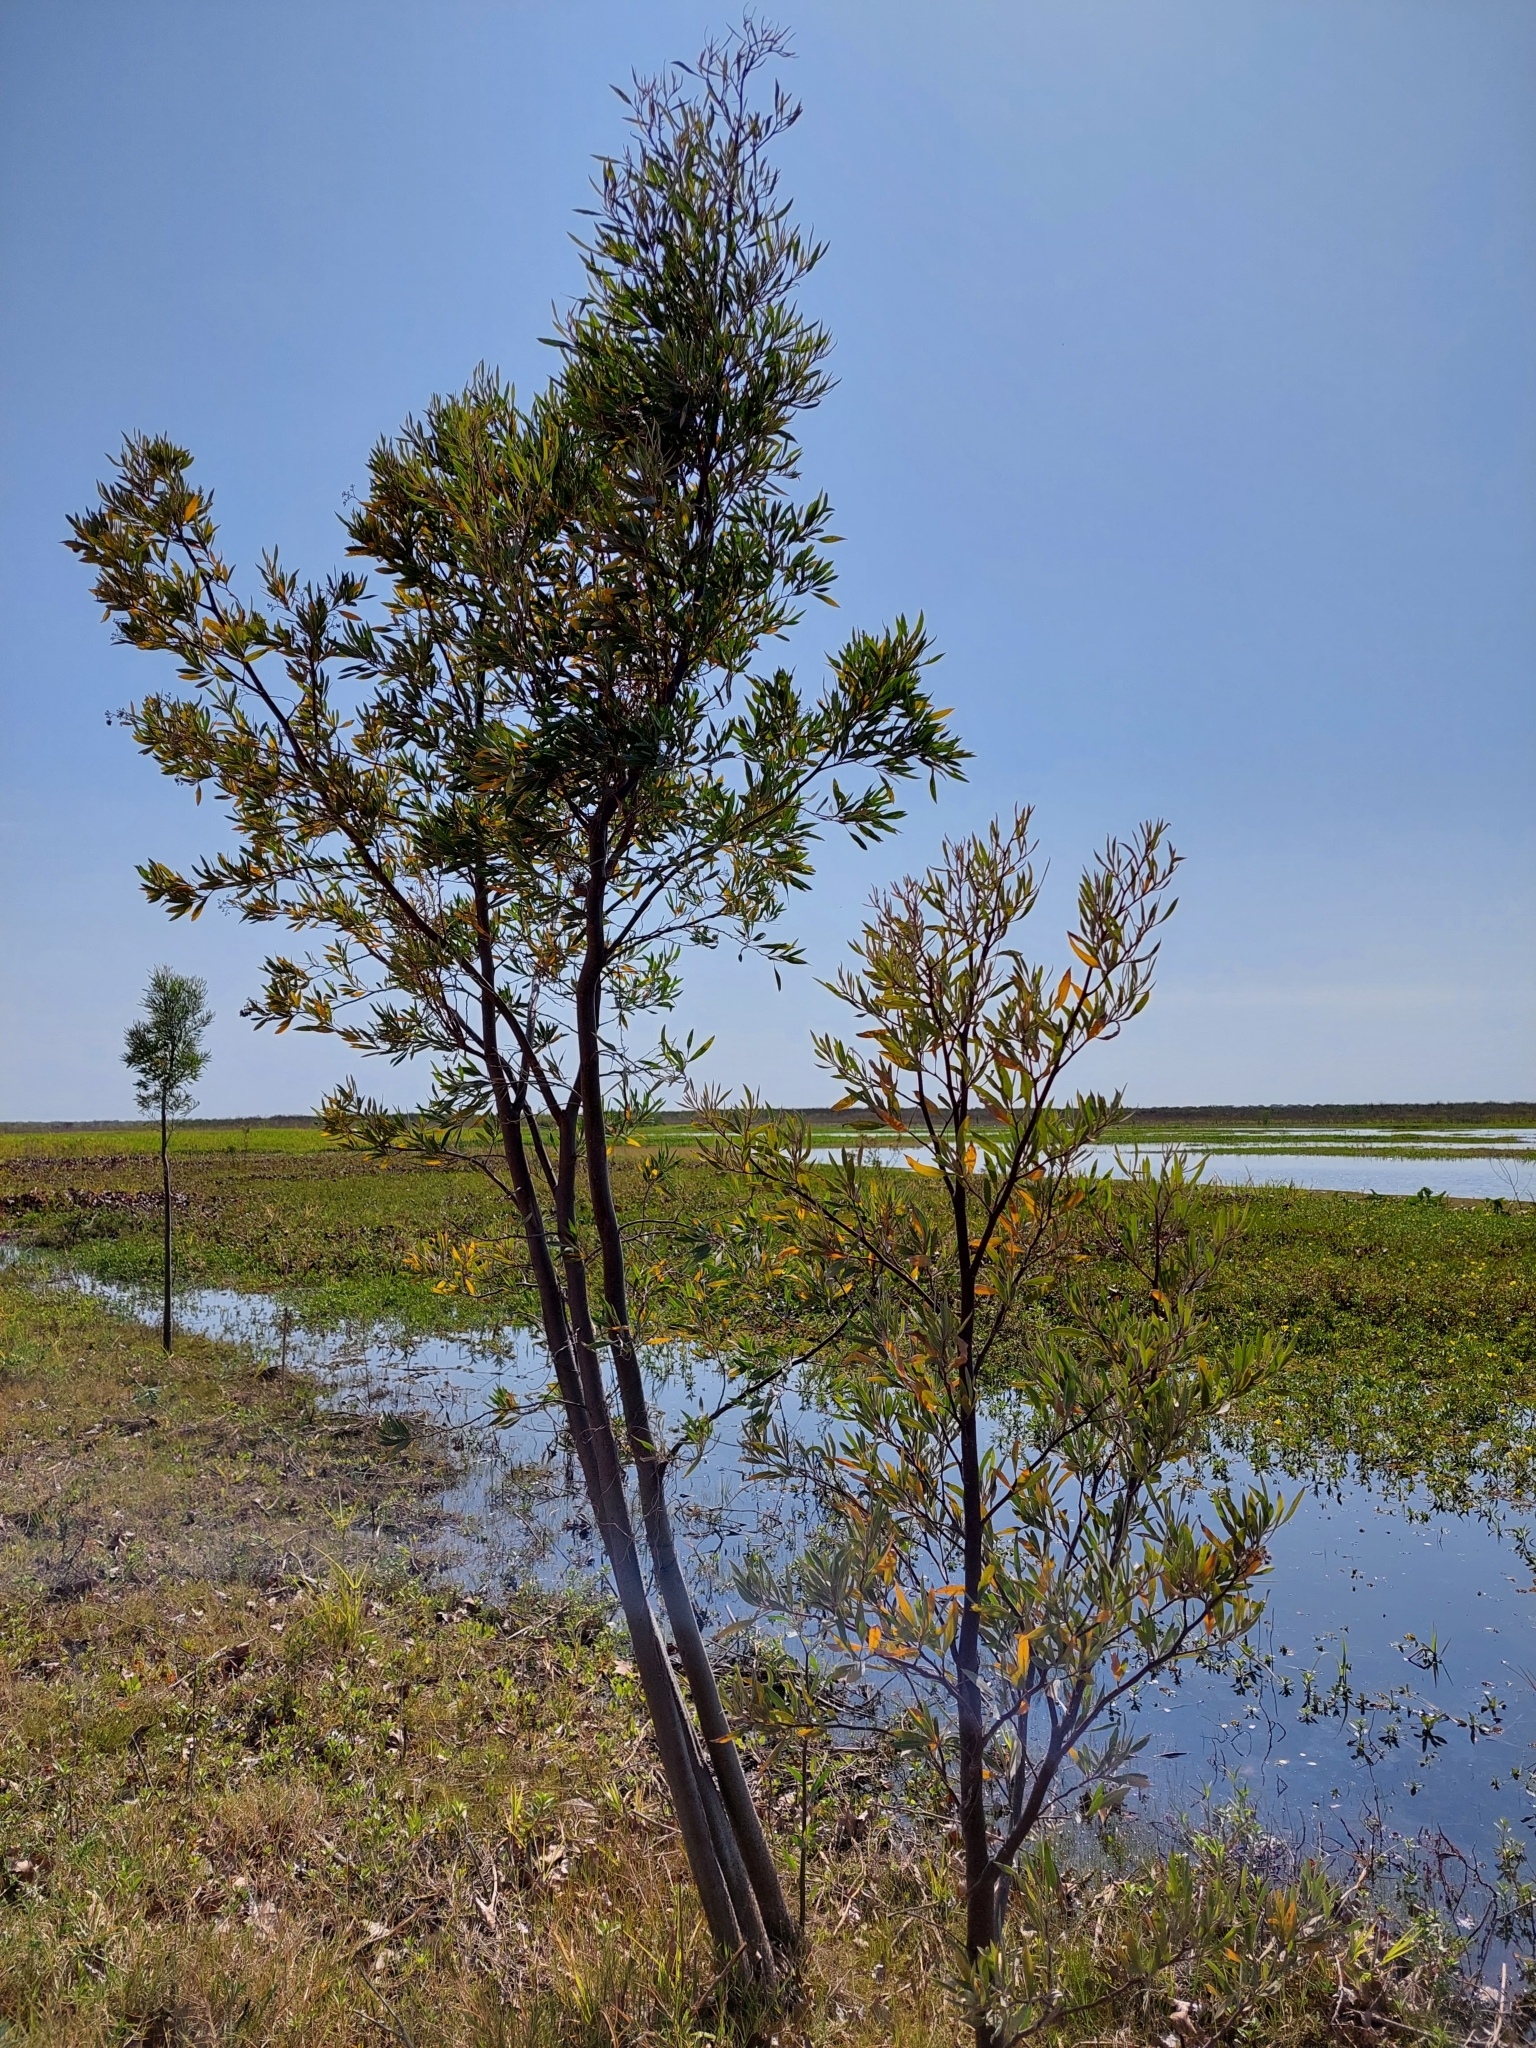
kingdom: Plantae
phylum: Tracheophyta
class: Magnoliopsida
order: Asterales
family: Asteraceae
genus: Tessaria
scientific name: Tessaria integrifolia
